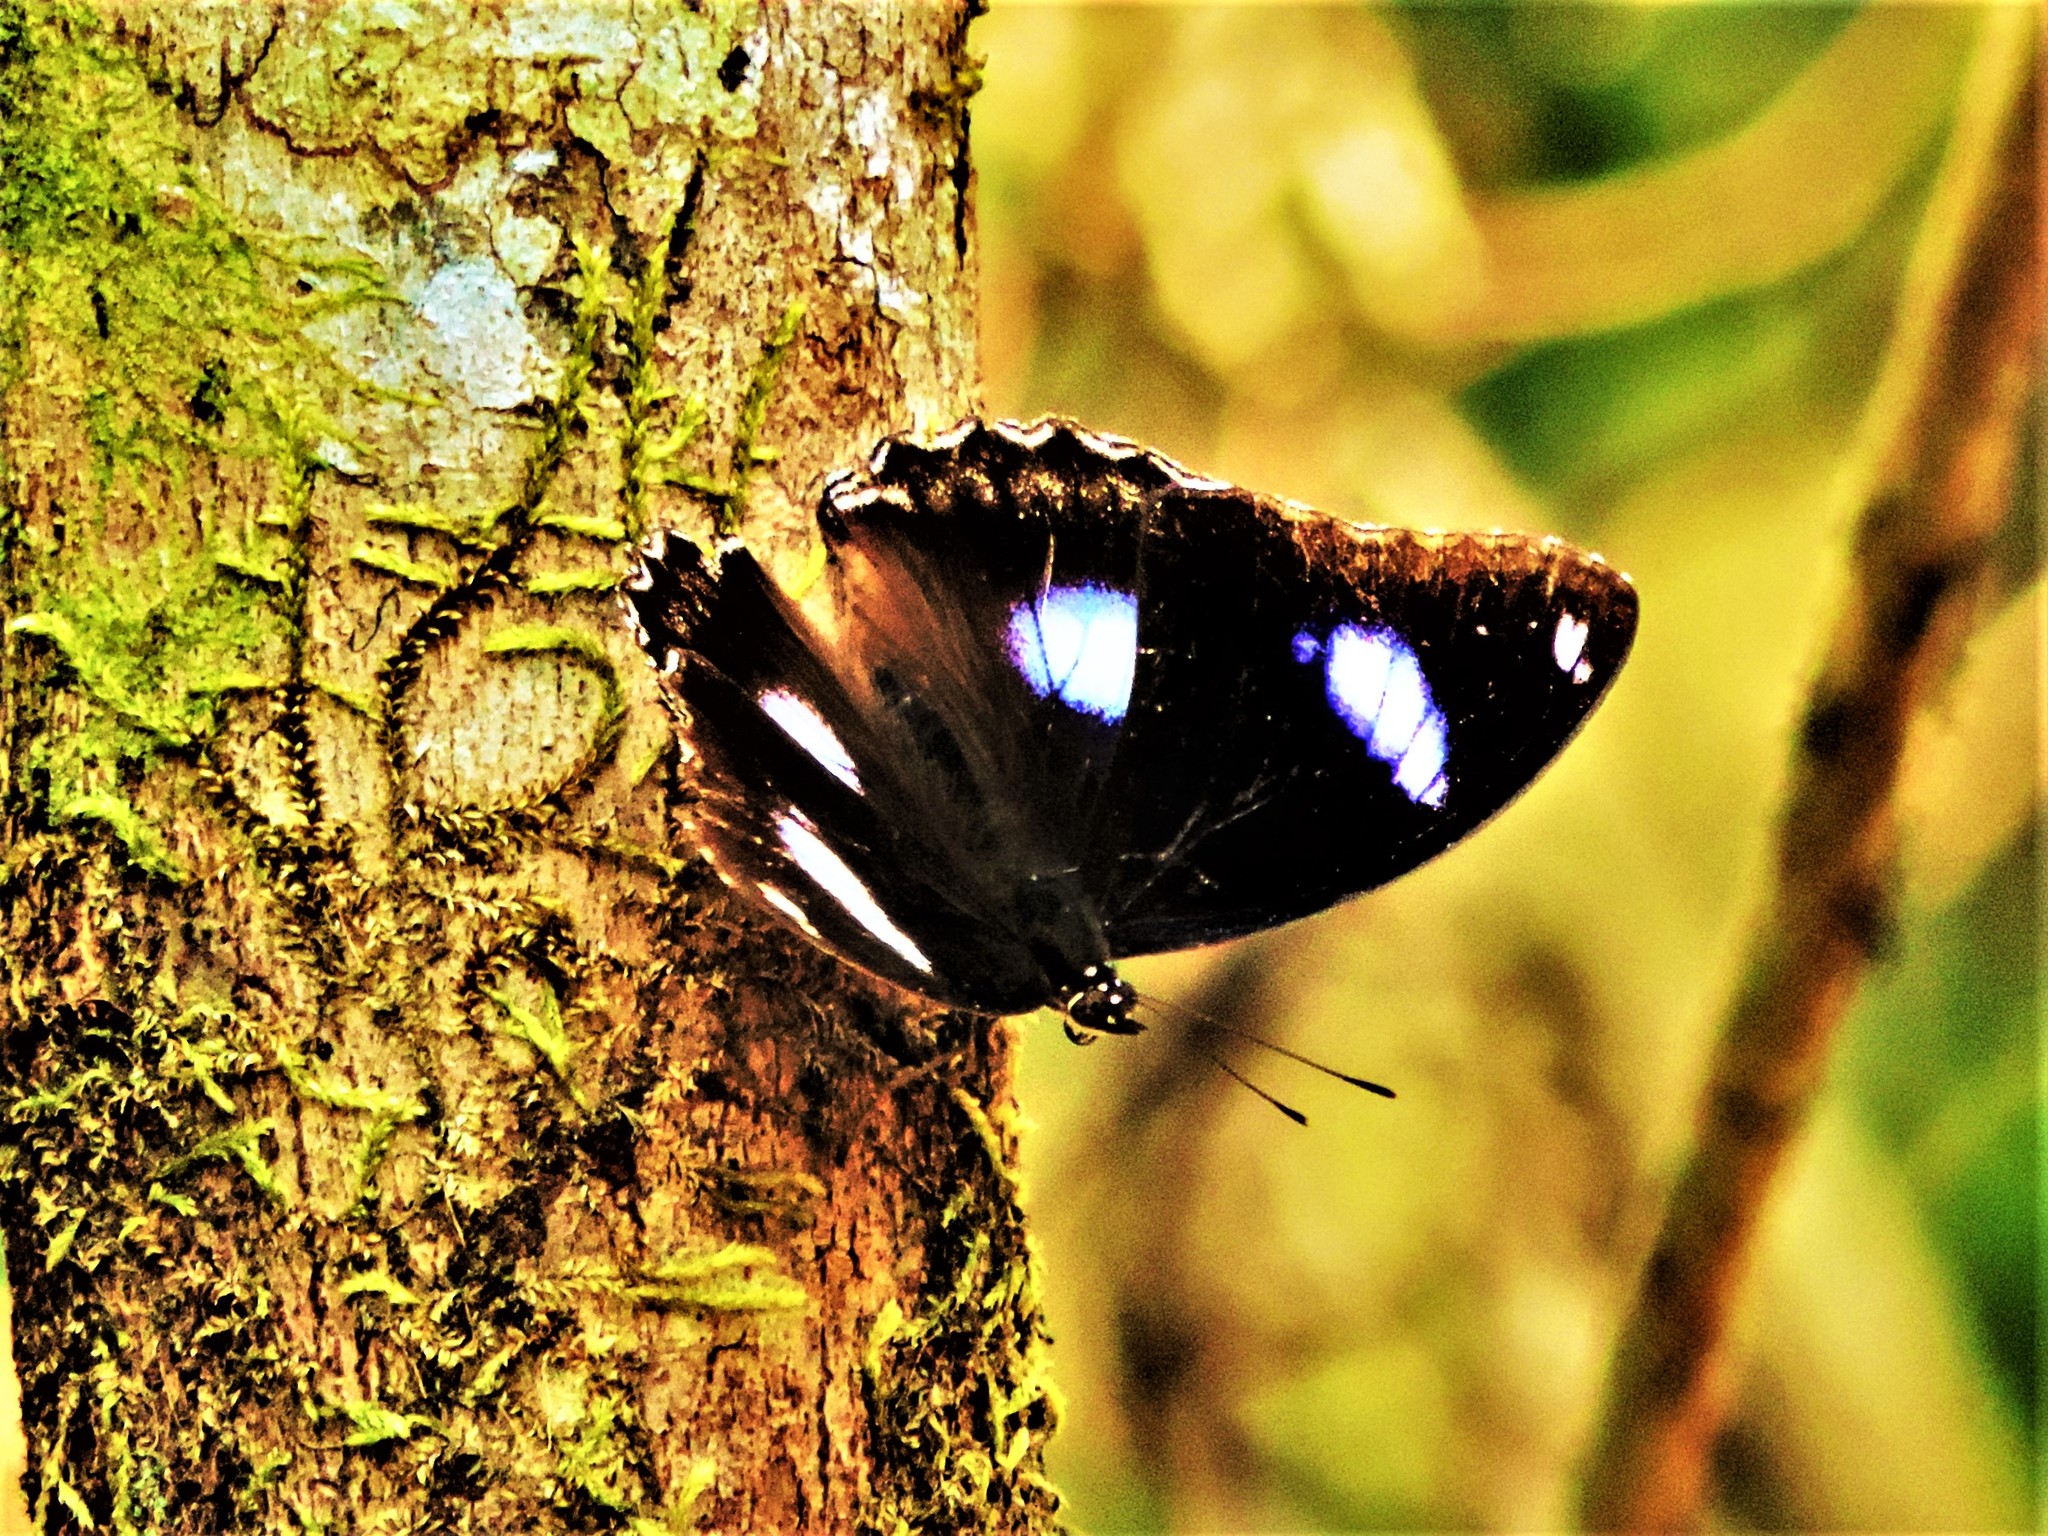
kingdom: Animalia
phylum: Arthropoda
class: Insecta
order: Lepidoptera
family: Nymphalidae
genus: Hypolimnas
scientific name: Hypolimnas bolina
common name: Great eggfly
